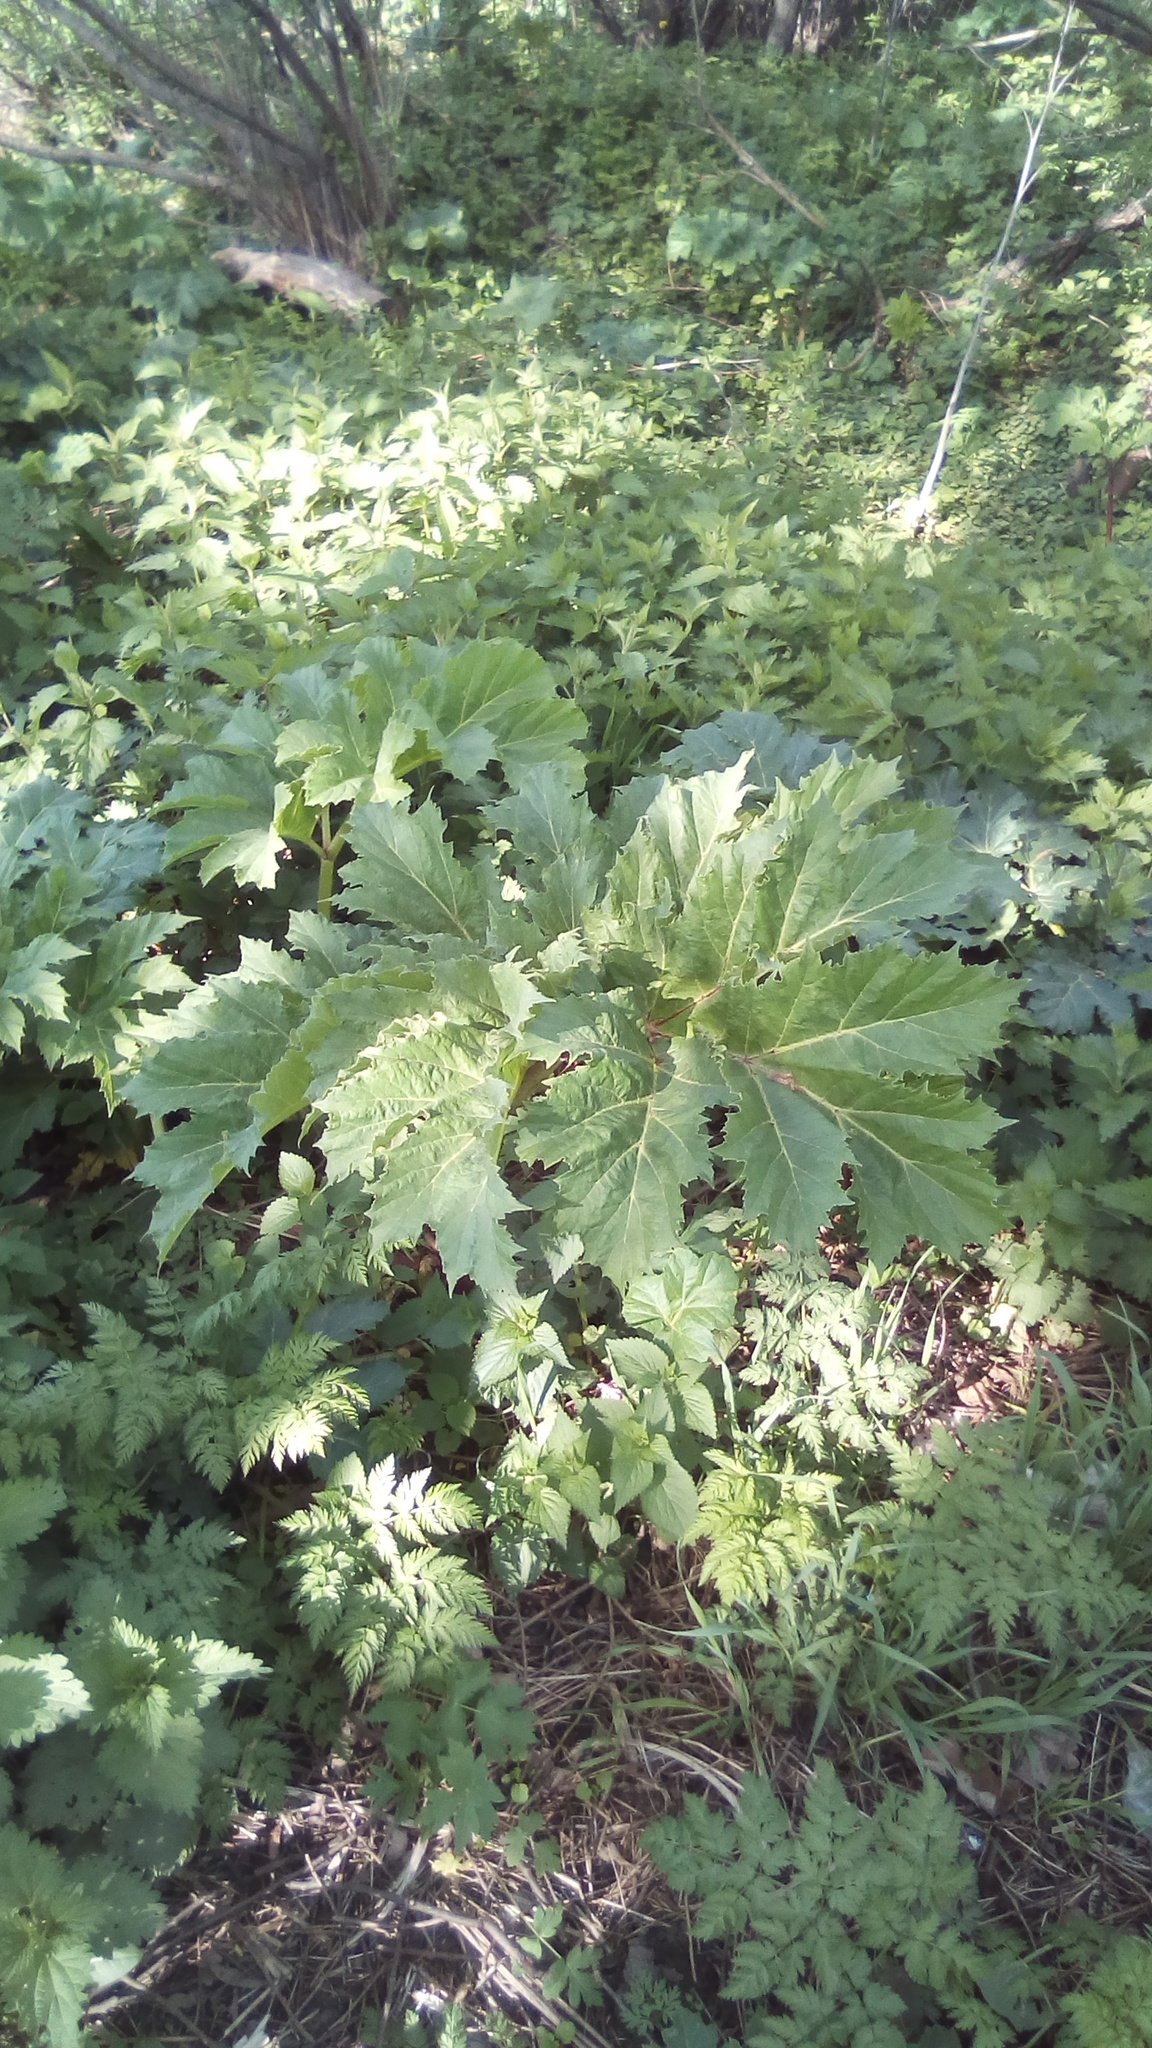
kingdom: Plantae
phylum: Tracheophyta
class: Magnoliopsida
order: Apiales
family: Apiaceae
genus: Heracleum
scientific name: Heracleum sosnowskyi
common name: Sosnowsky's hogweed
